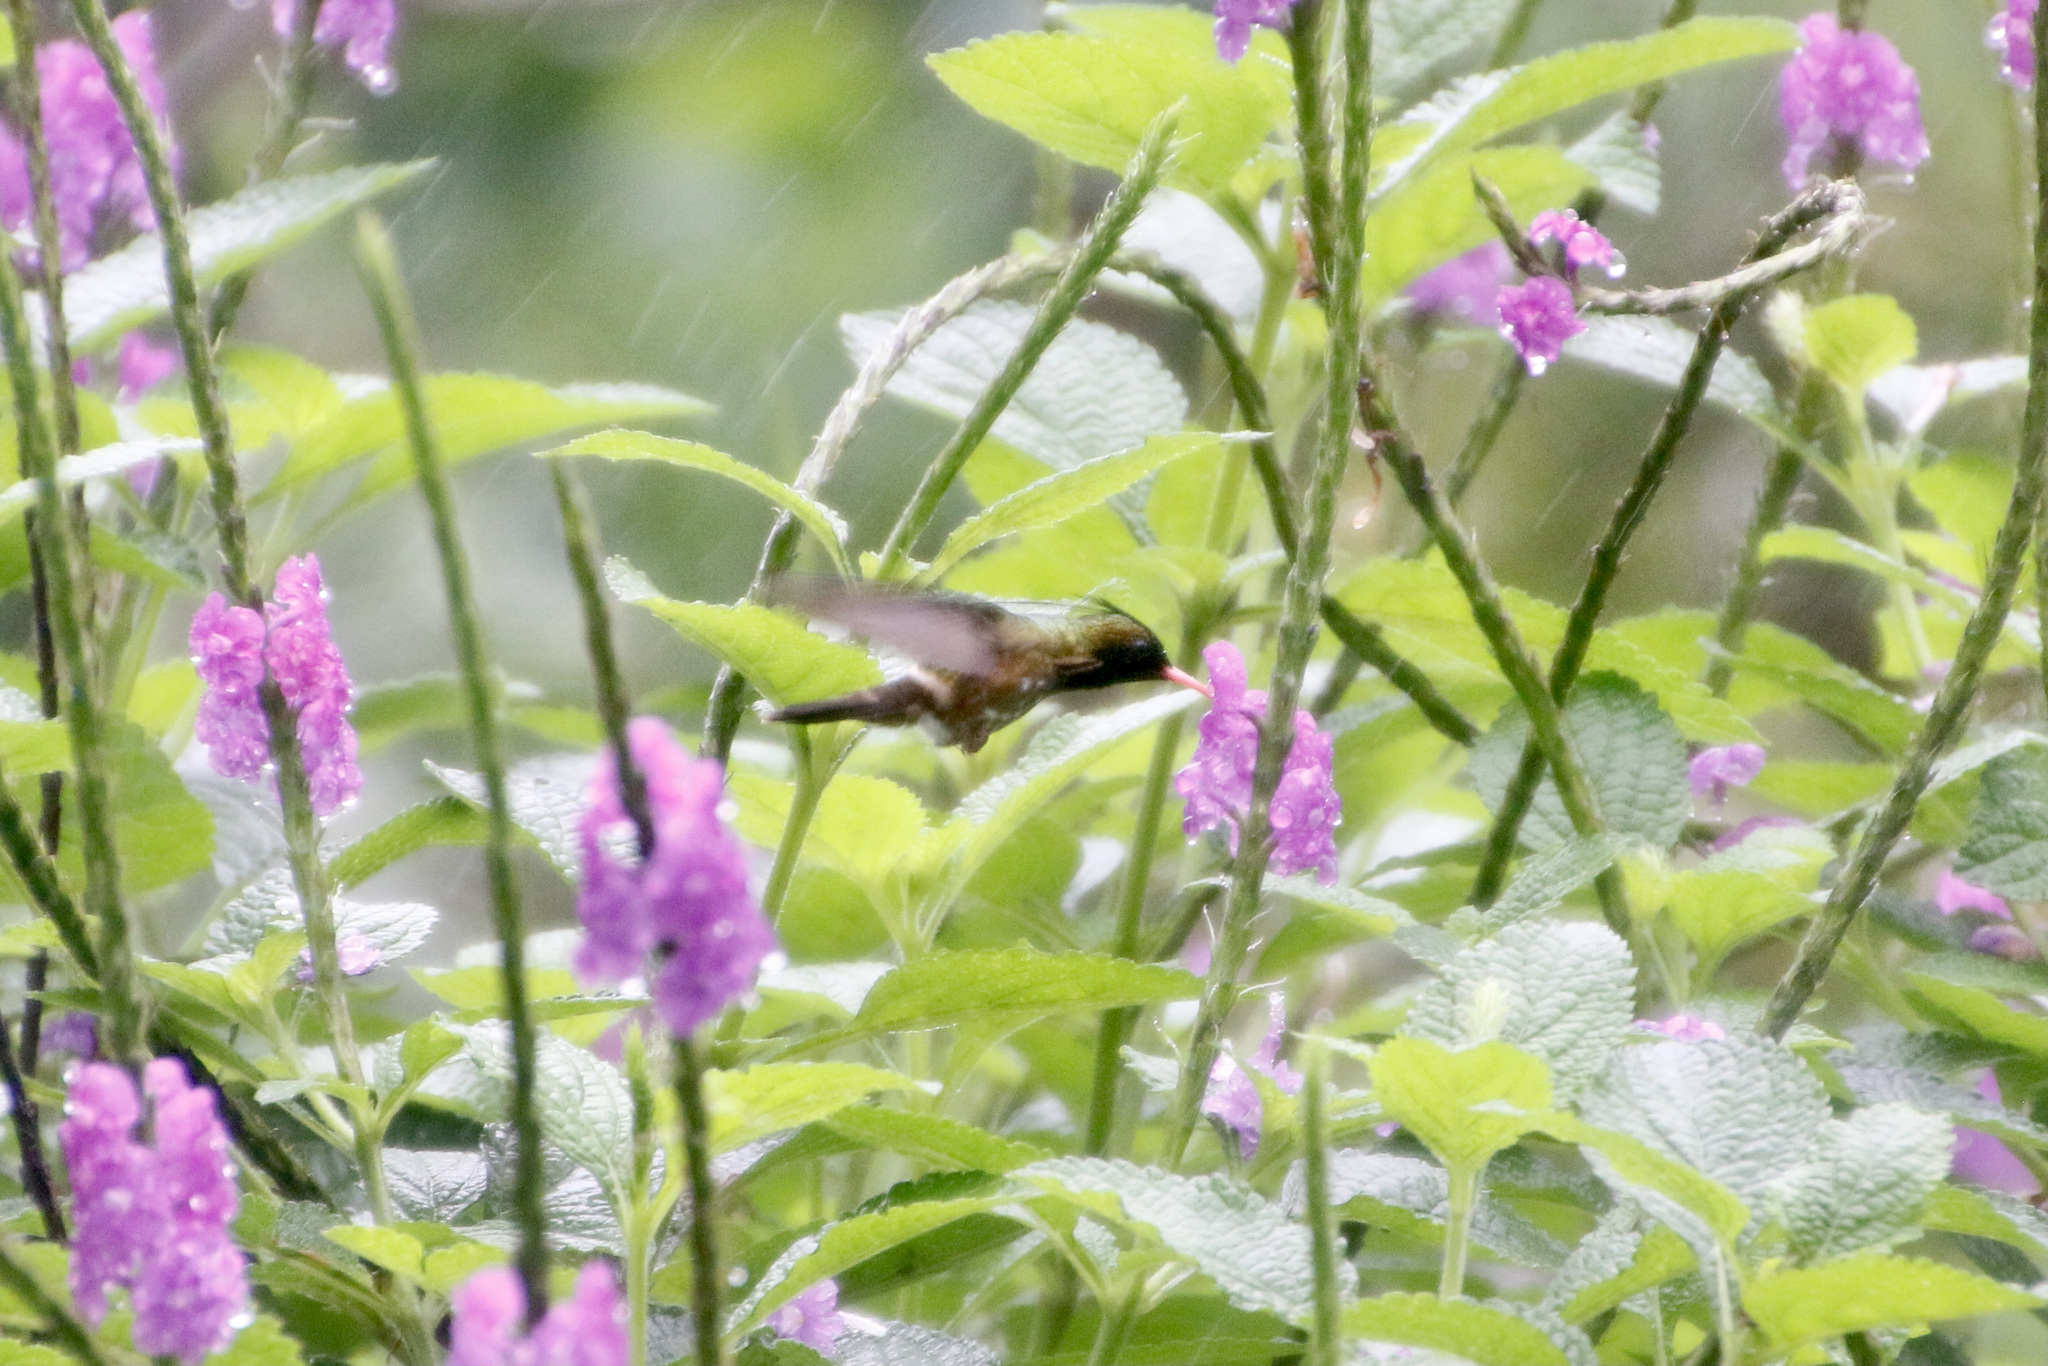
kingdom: Animalia
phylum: Chordata
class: Aves
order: Apodiformes
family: Trochilidae
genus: Lophornis
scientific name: Lophornis helenae
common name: Black-crested coquette
